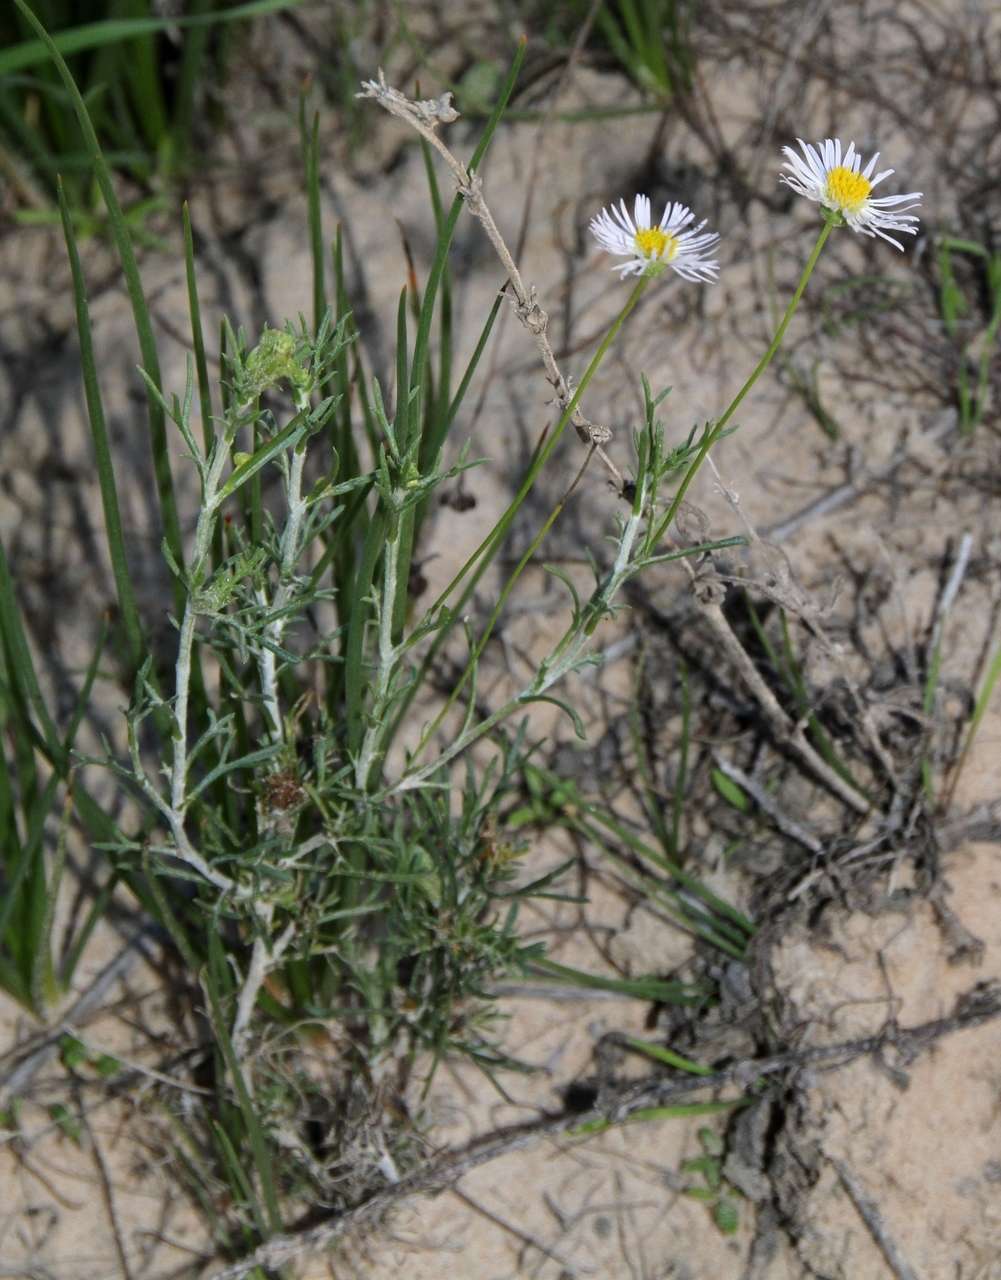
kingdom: Plantae
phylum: Tracheophyta
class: Magnoliopsida
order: Asterales
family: Asteraceae
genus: Brachyscome
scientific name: Brachyscome ciliaris
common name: Variable daisy
